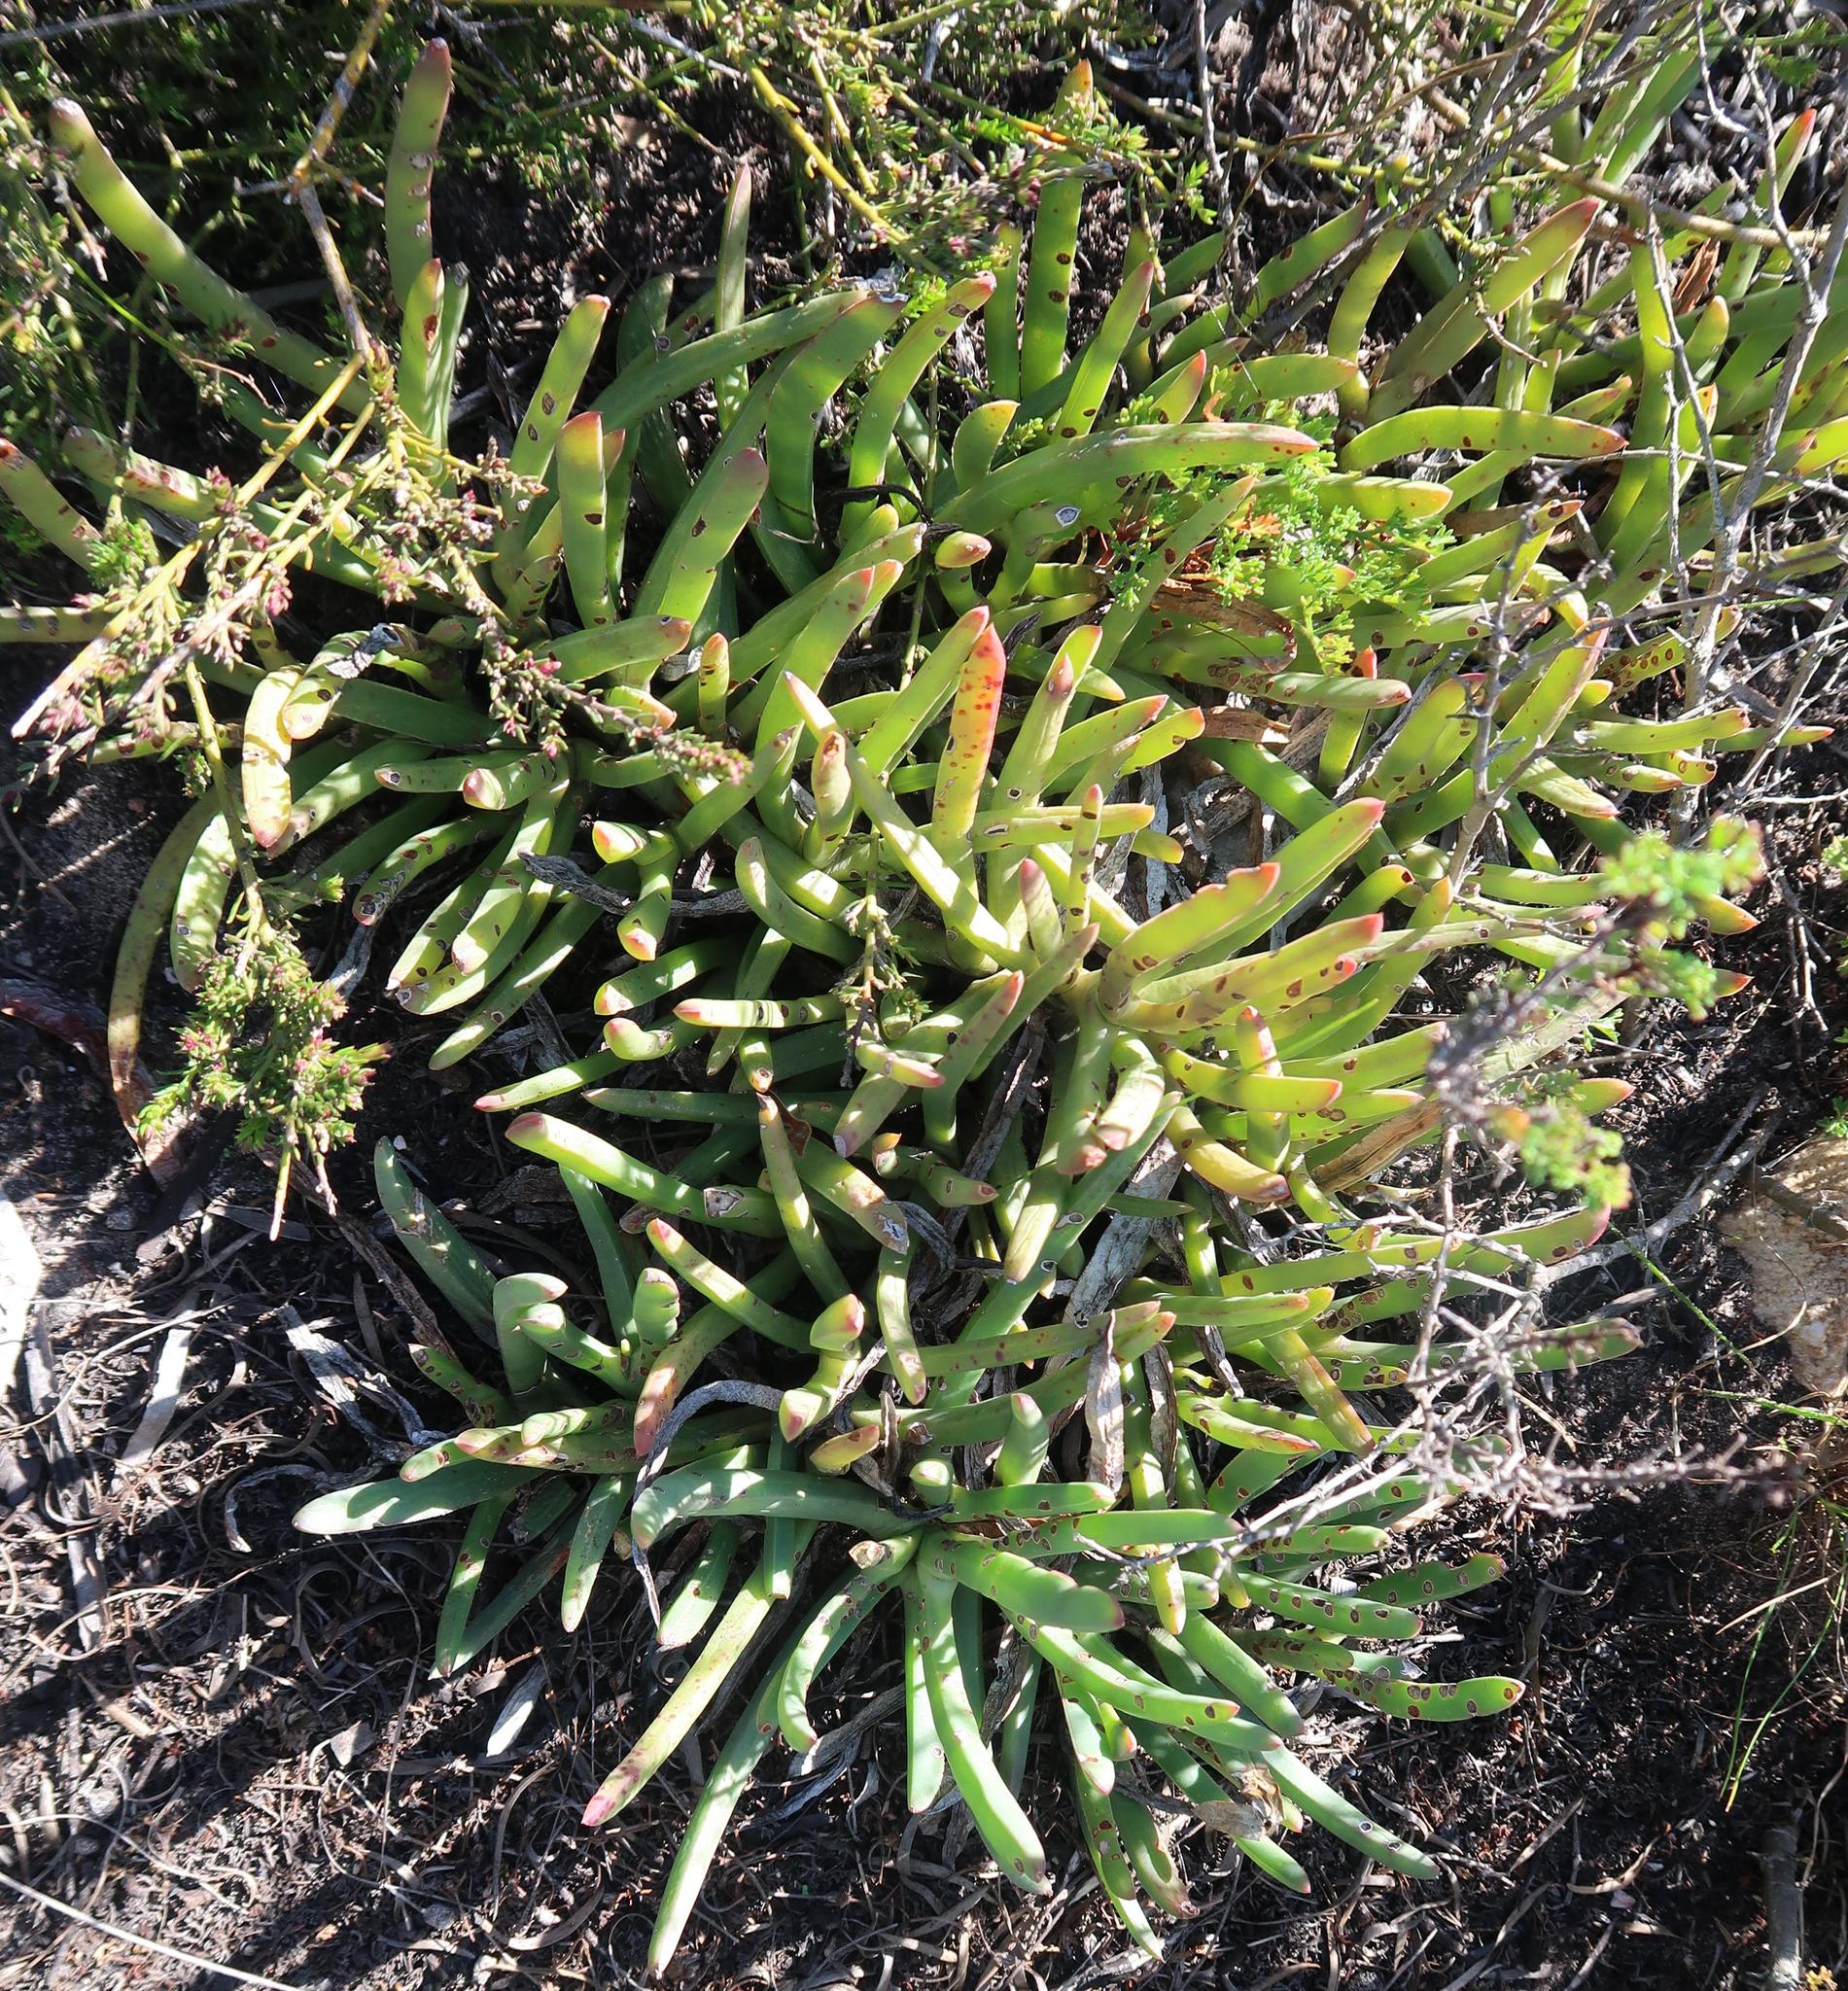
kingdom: Plantae
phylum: Tracheophyta
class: Magnoliopsida
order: Caryophyllales
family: Aizoaceae
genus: Carpobrotus
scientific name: Carpobrotus muirii
